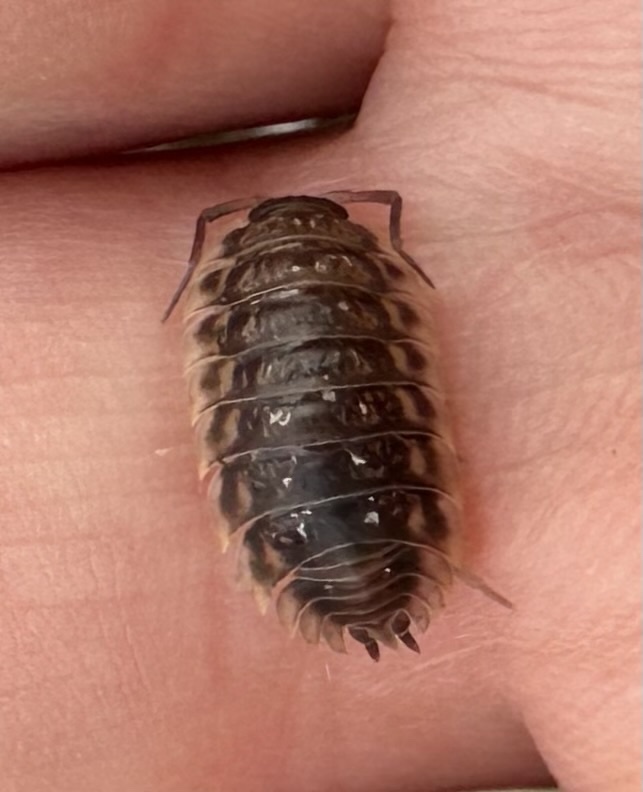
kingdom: Animalia
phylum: Arthropoda
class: Malacostraca
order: Isopoda
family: Oniscidae
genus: Oniscus
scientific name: Oniscus asellus
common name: Common shiny woodlouse
